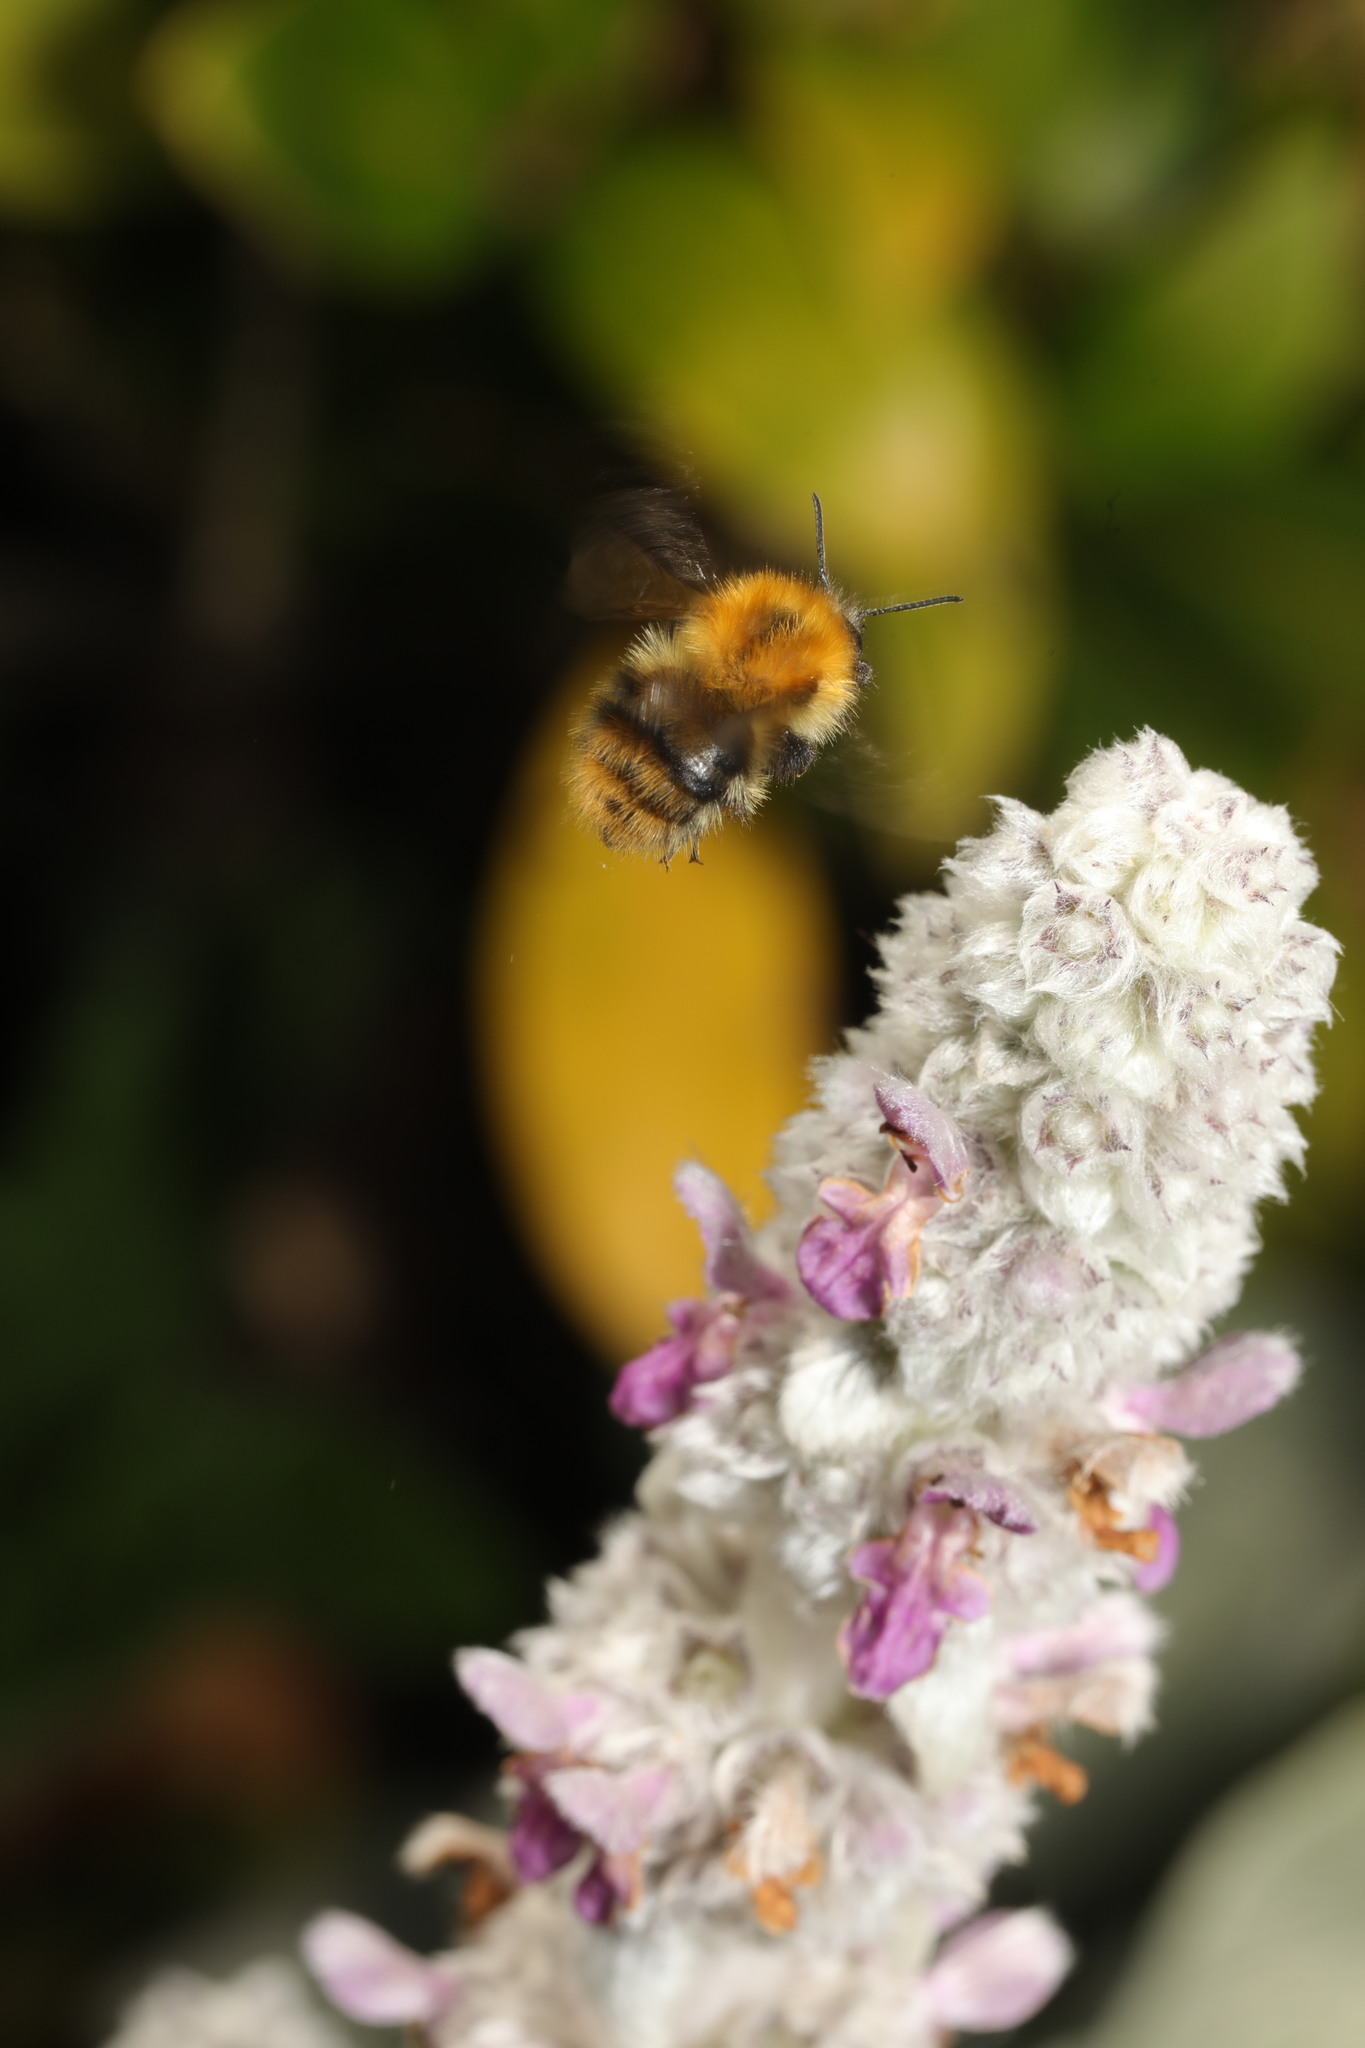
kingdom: Animalia
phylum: Arthropoda
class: Insecta
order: Hymenoptera
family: Apidae
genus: Bombus
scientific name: Bombus pascuorum
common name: Common carder bee
